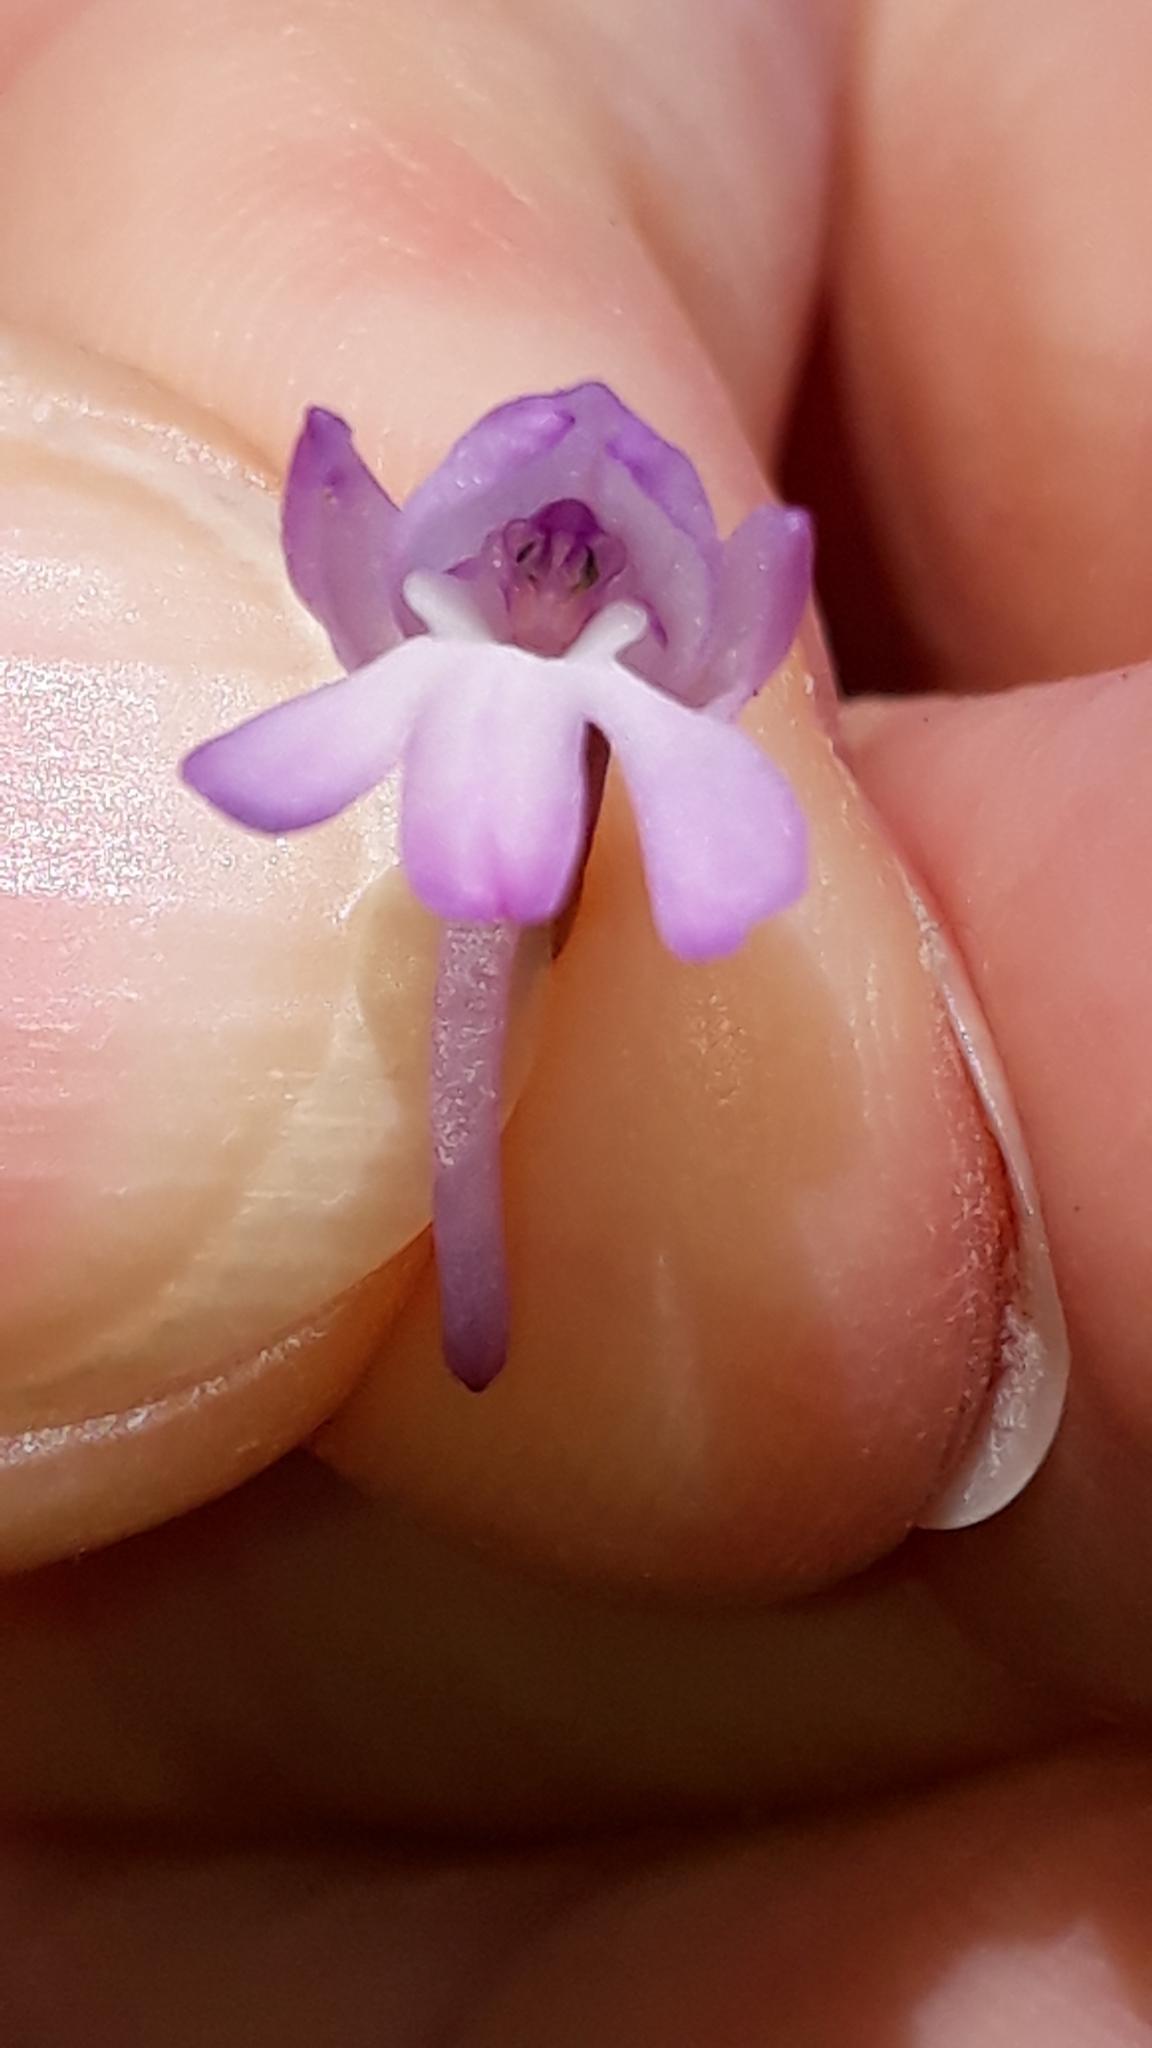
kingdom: Plantae
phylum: Tracheophyta
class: Liliopsida
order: Asparagales
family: Orchidaceae
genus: Anacamptis
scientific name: Anacamptis pyramidalis
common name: Pyramidal orchid
